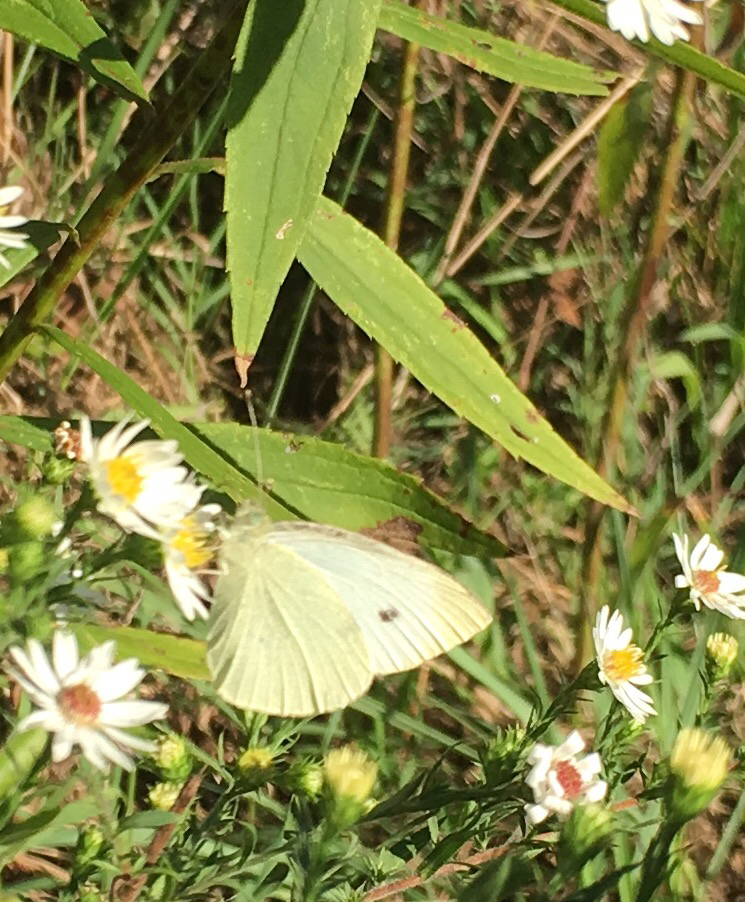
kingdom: Animalia
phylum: Arthropoda
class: Insecta
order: Lepidoptera
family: Pieridae
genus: Pieris
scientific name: Pieris rapae
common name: Small white
